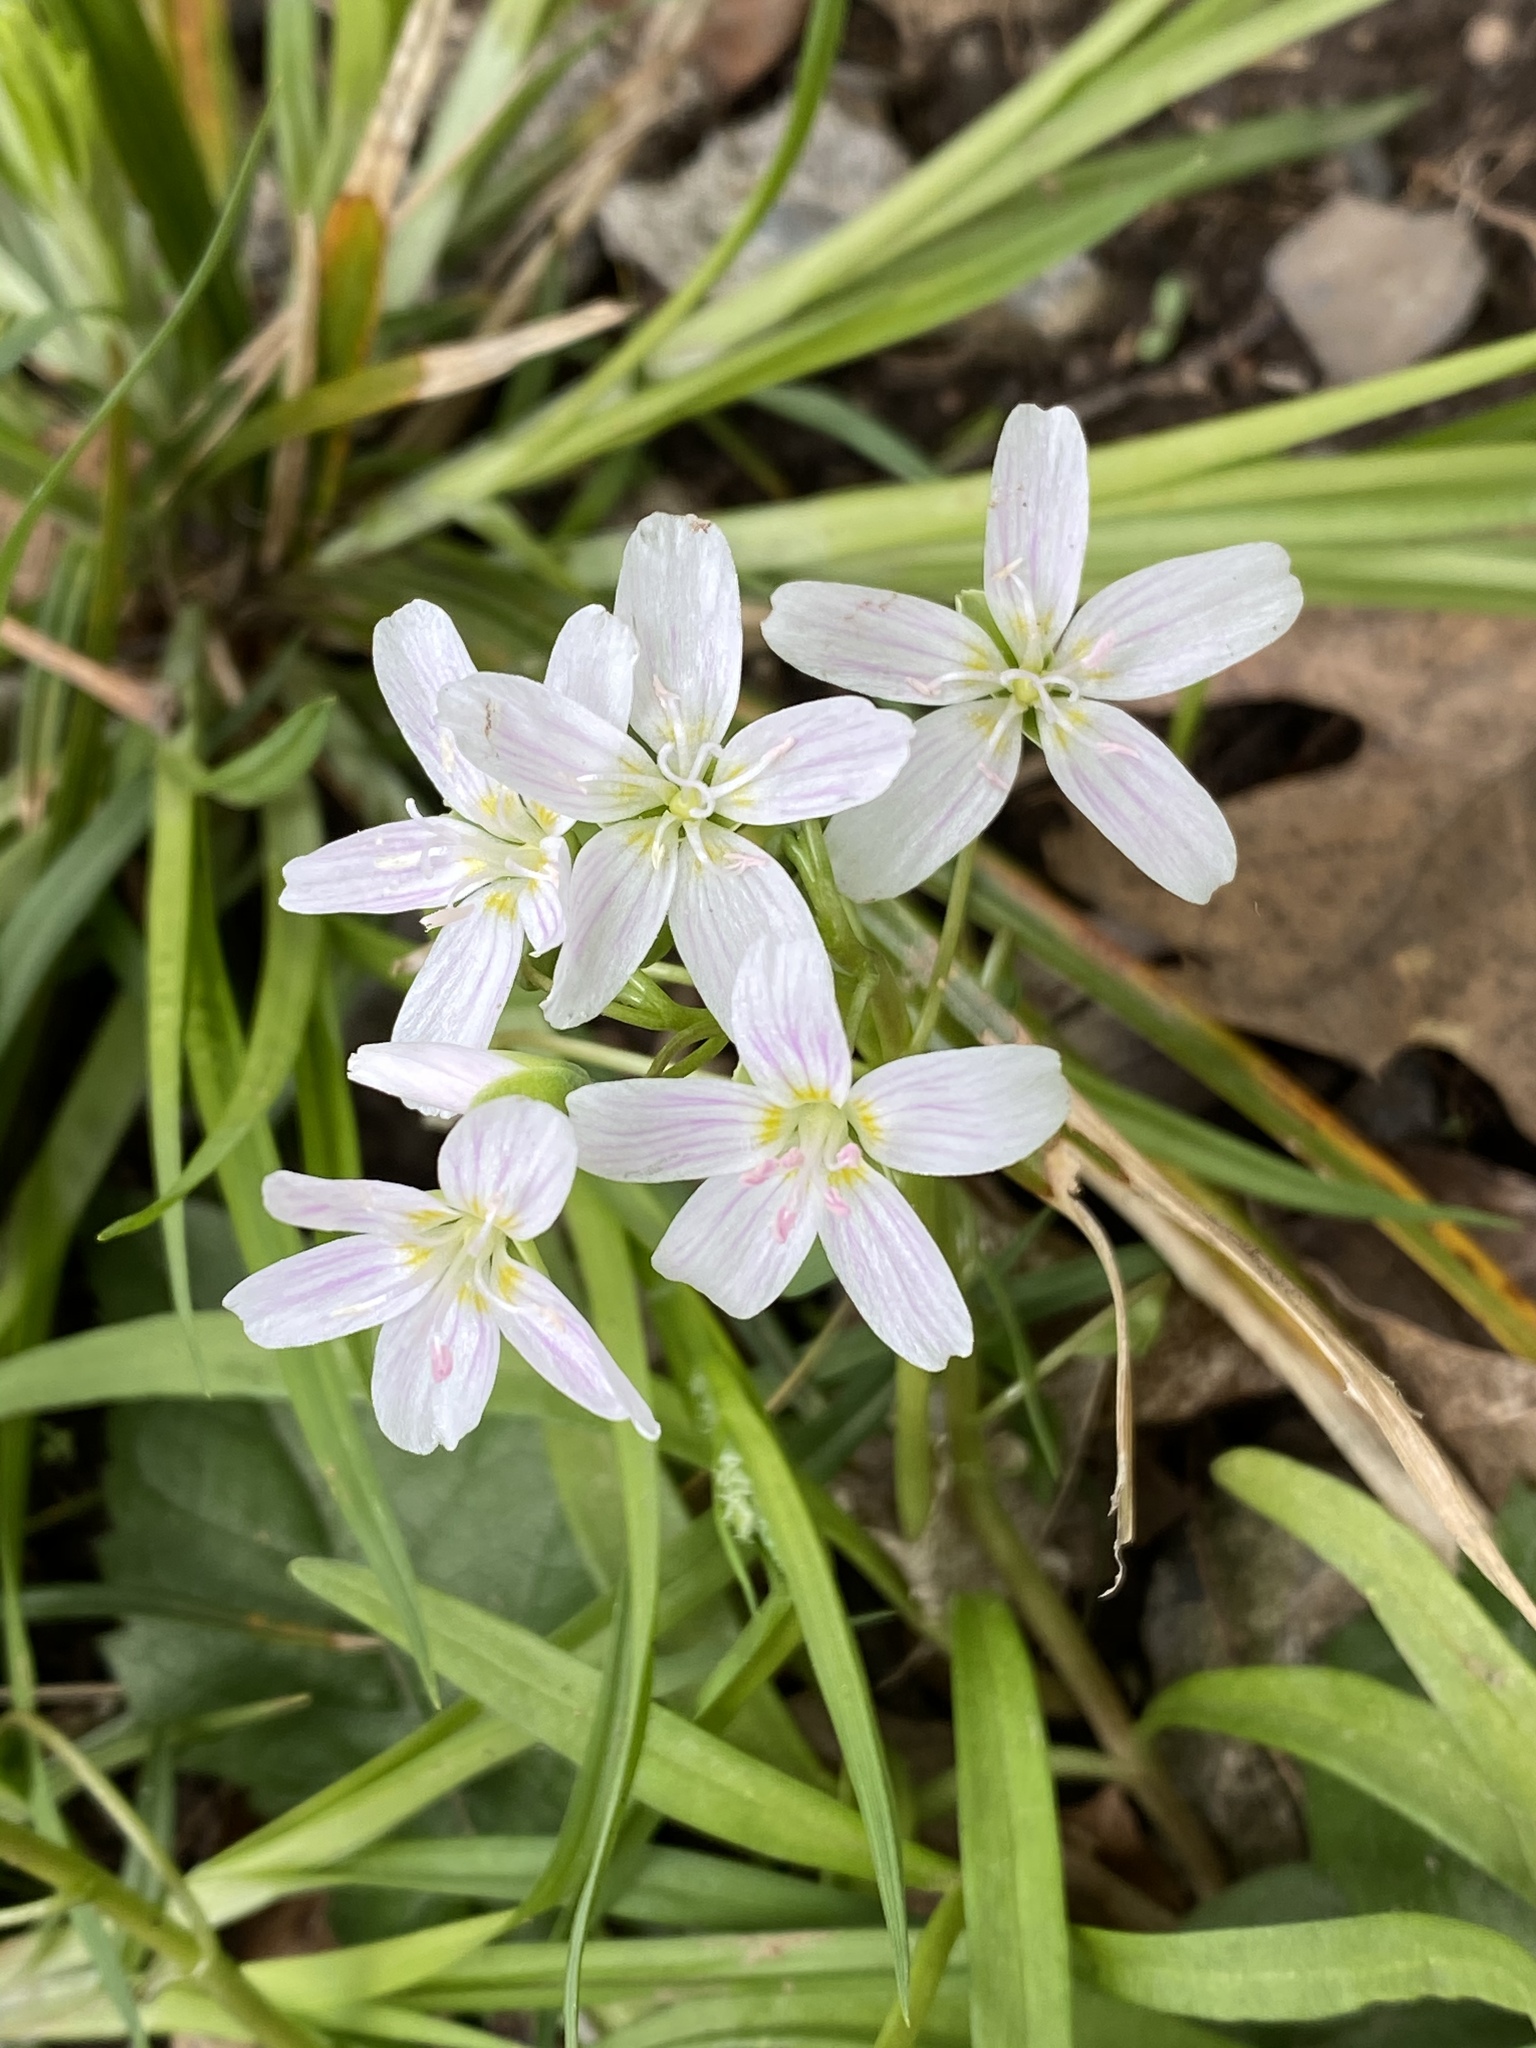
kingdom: Plantae
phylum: Tracheophyta
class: Magnoliopsida
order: Caryophyllales
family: Montiaceae
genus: Claytonia
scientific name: Claytonia virginica
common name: Virginia springbeauty
